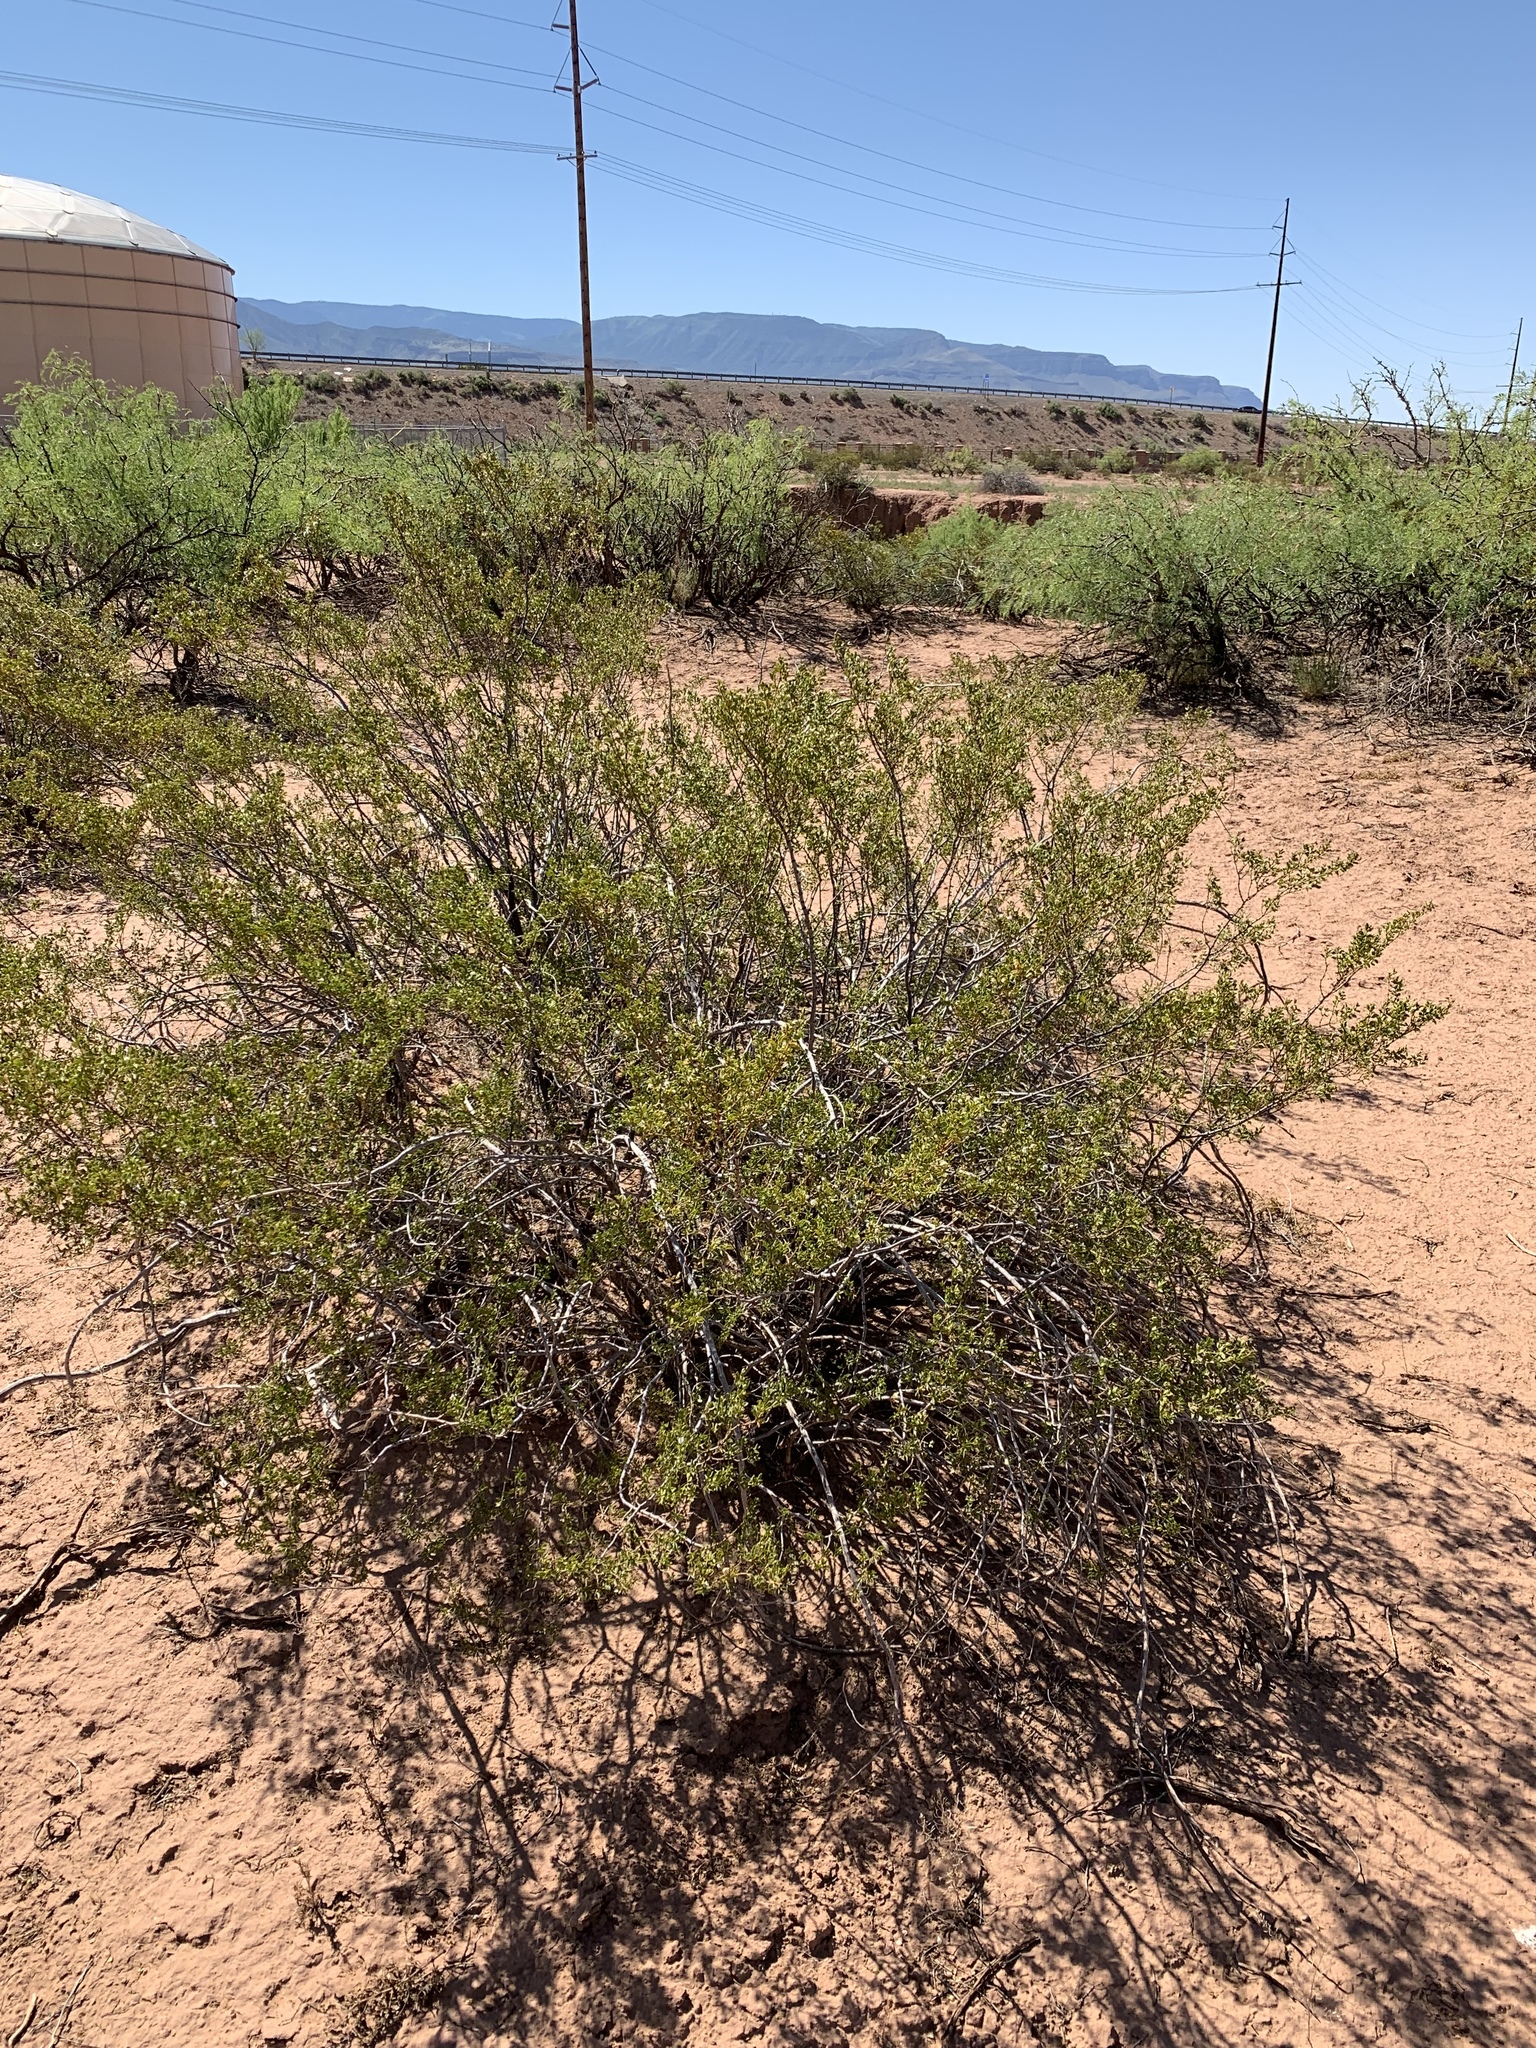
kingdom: Plantae
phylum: Tracheophyta
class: Magnoliopsida
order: Zygophyllales
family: Zygophyllaceae
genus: Larrea
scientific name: Larrea tridentata
